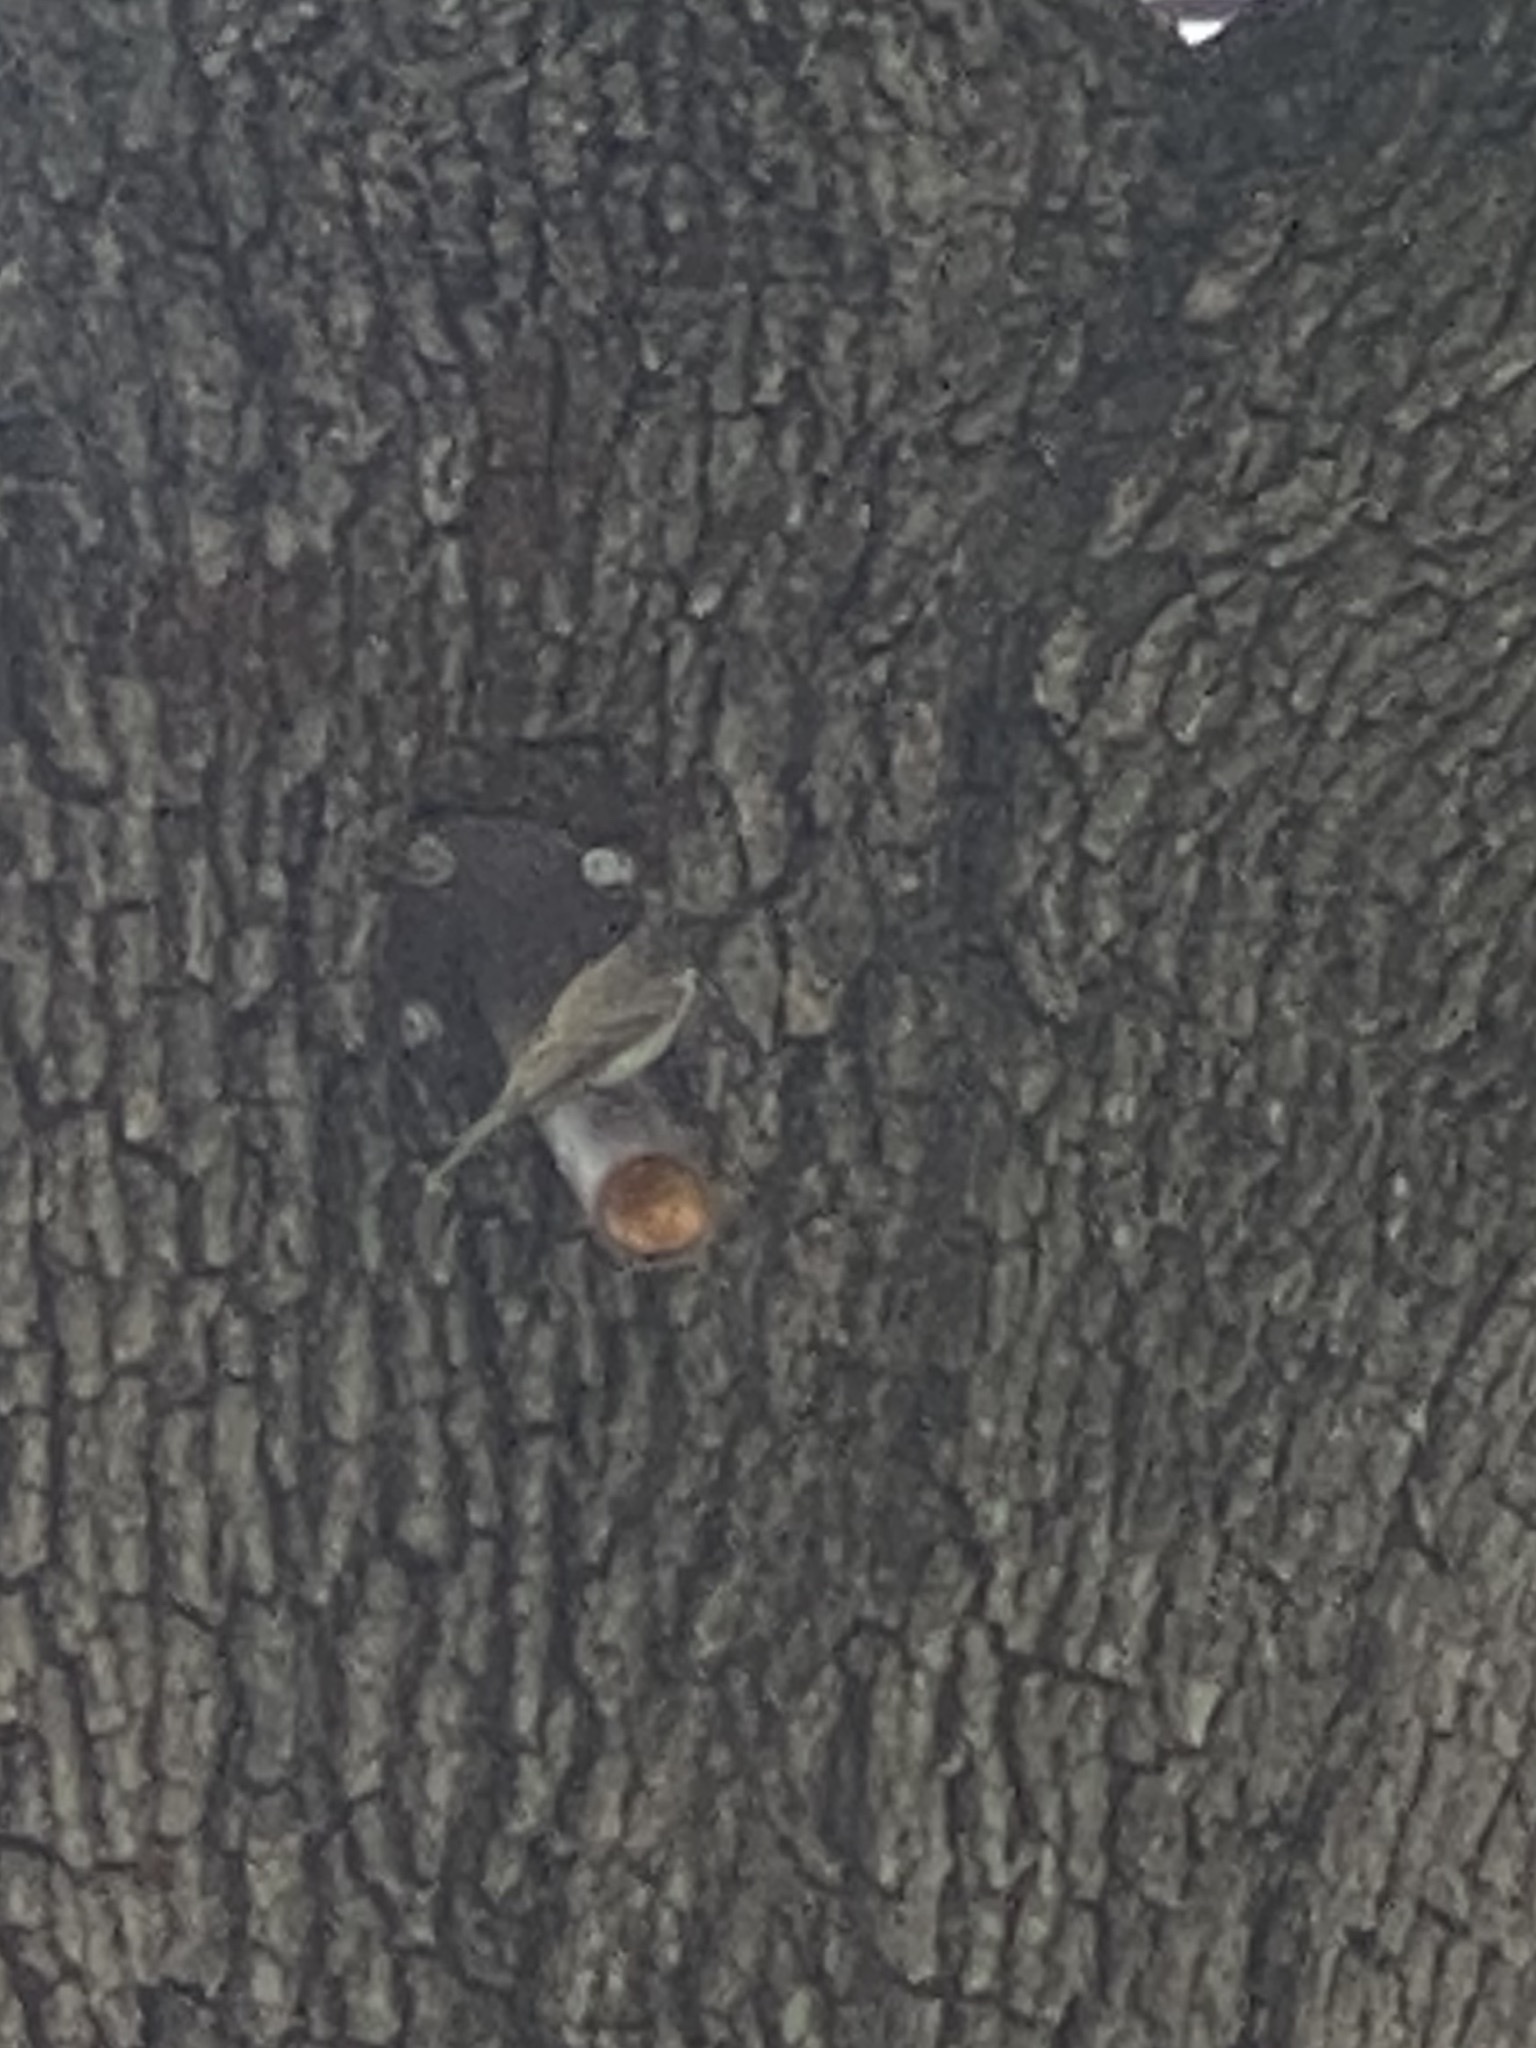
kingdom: Animalia
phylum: Chordata
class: Aves
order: Passeriformes
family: Tyrannidae
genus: Sayornis
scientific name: Sayornis phoebe
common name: Eastern phoebe
